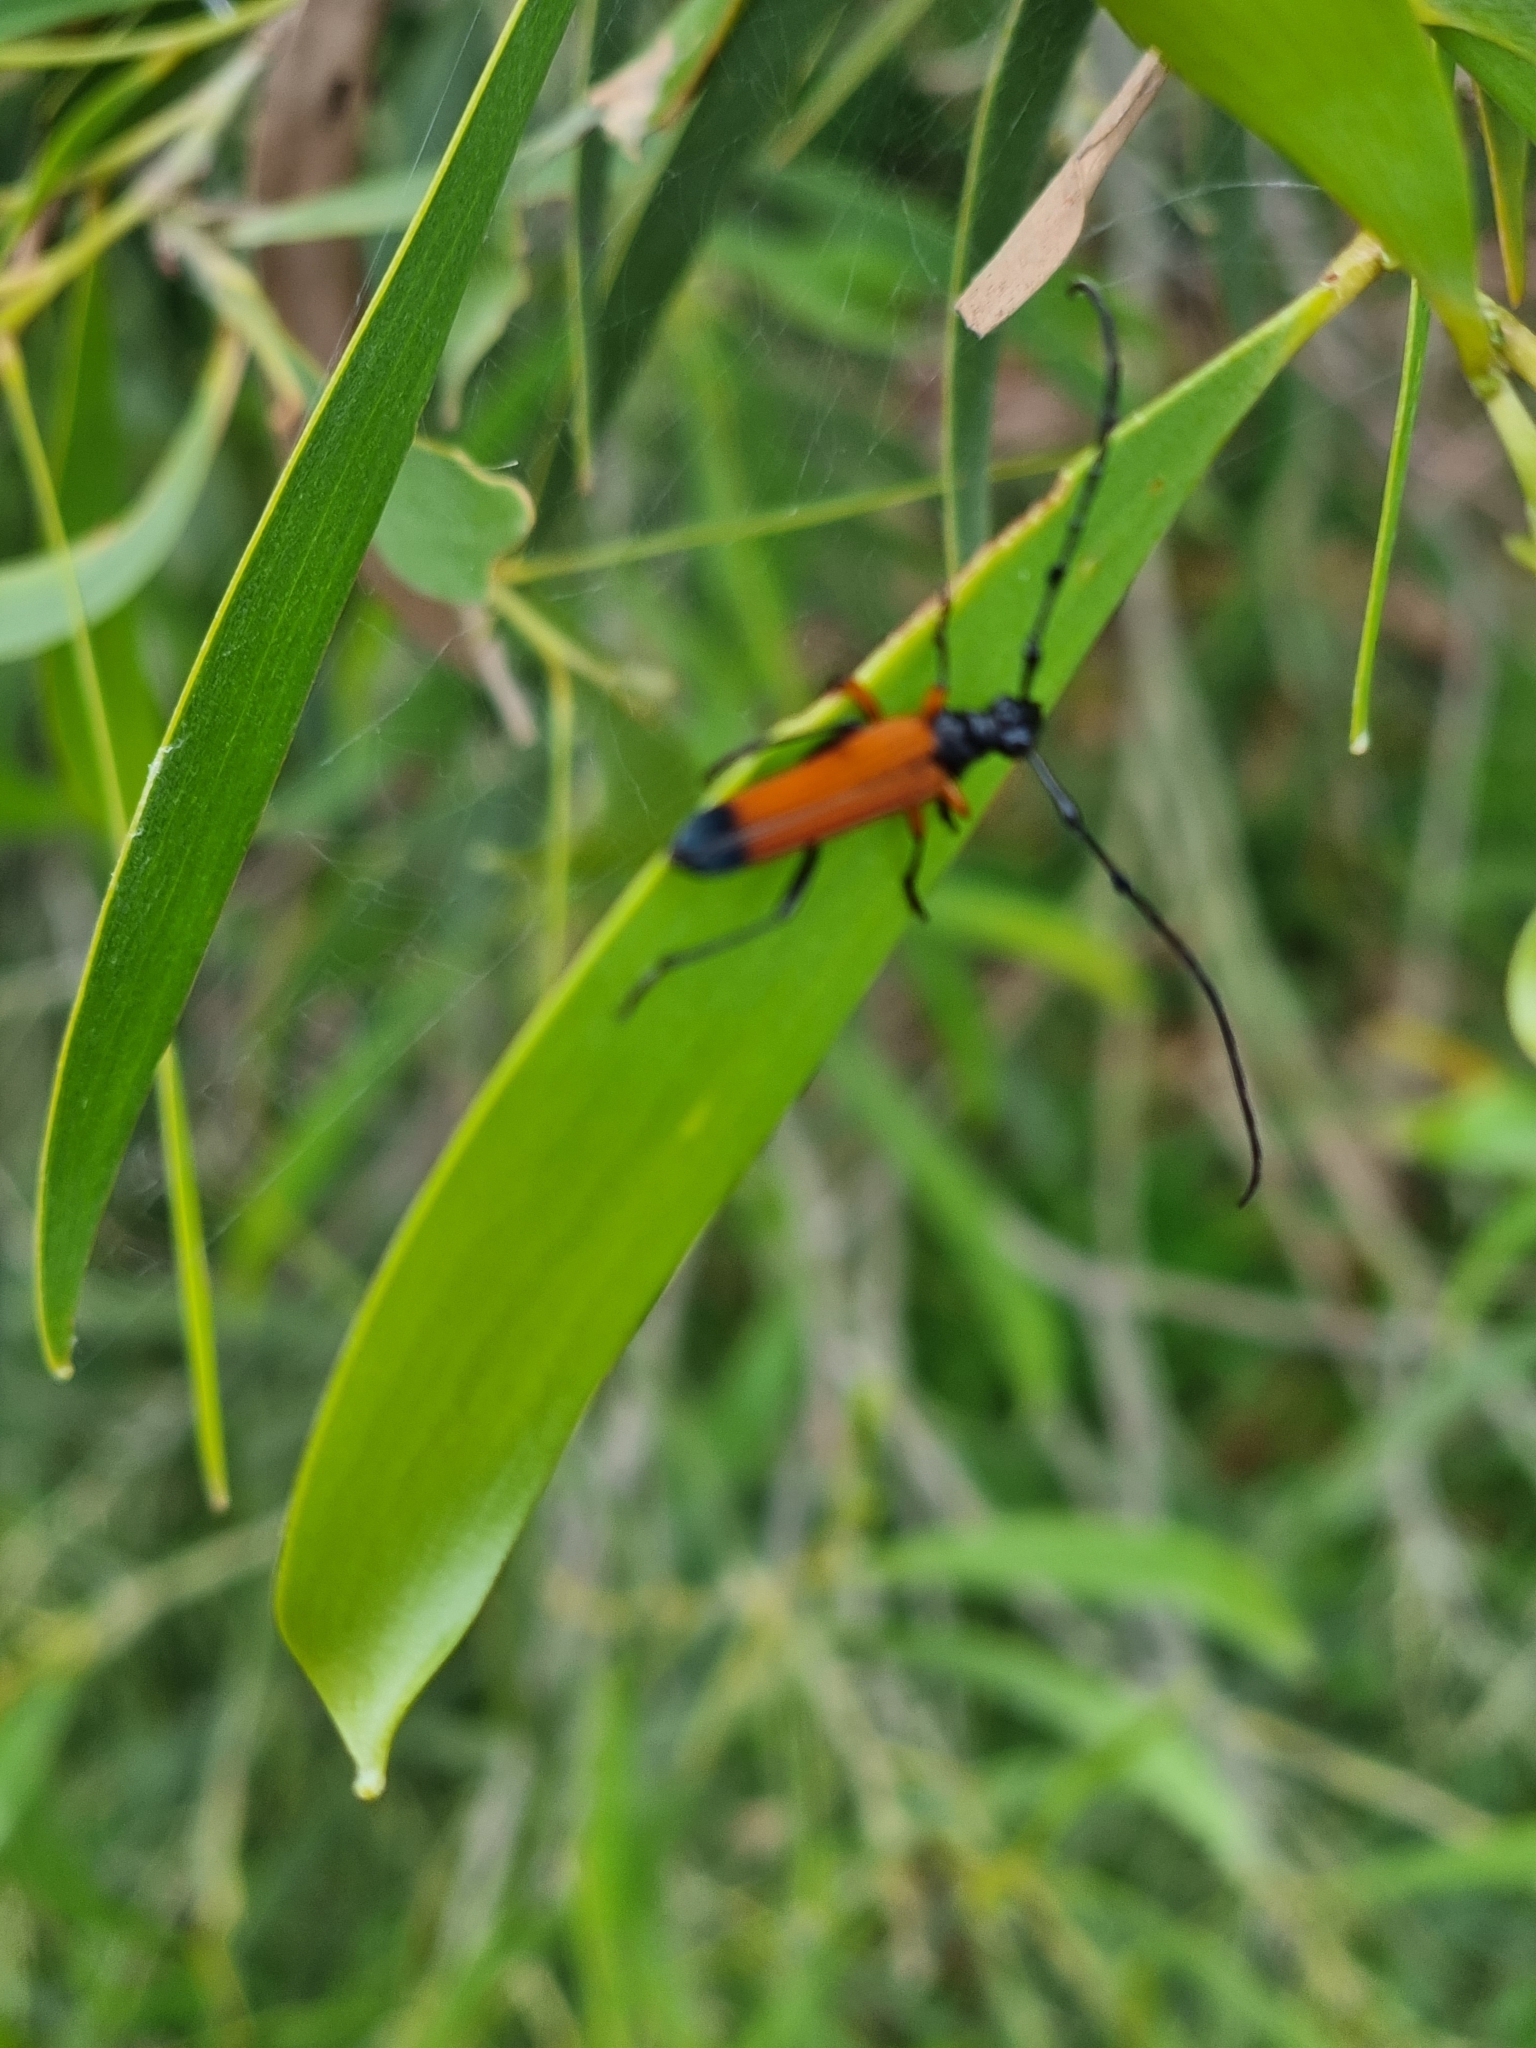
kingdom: Animalia
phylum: Arthropoda
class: Insecta
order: Coleoptera
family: Cerambycidae
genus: Tritocosmia
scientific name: Tritocosmia atricilla
